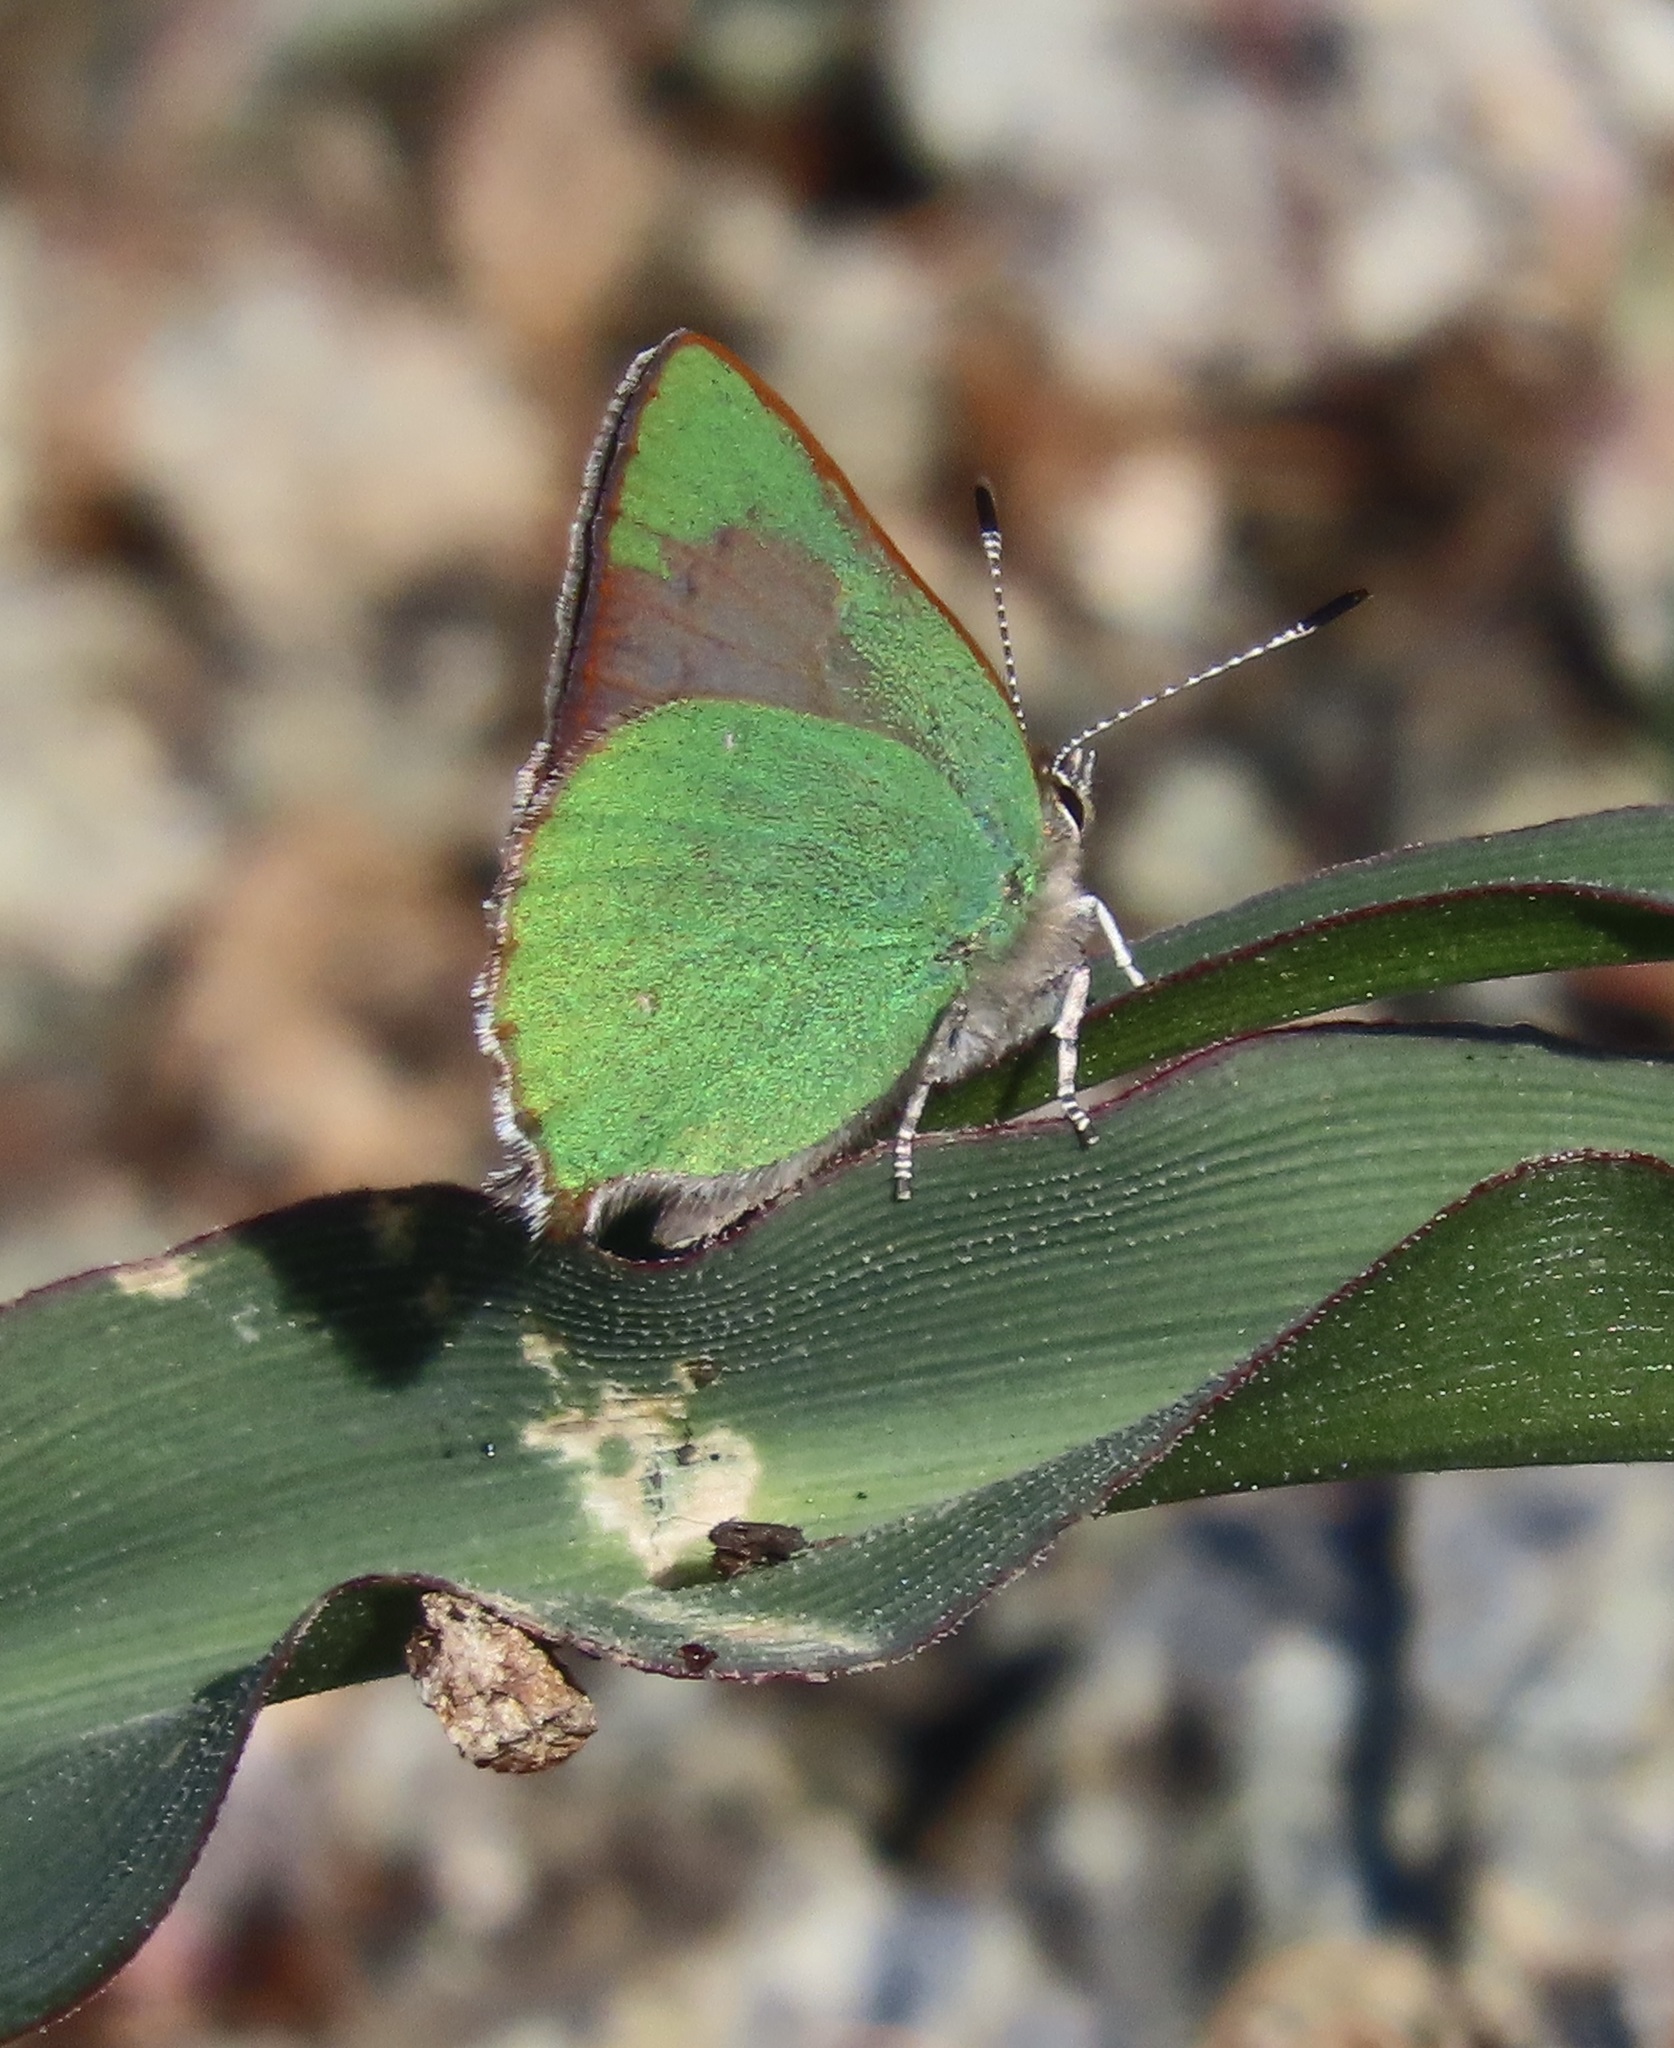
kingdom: Animalia
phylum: Arthropoda
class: Insecta
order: Lepidoptera
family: Lycaenidae
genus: Callophrys
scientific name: Callophrys dumetorum
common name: Bramble hairstreak
